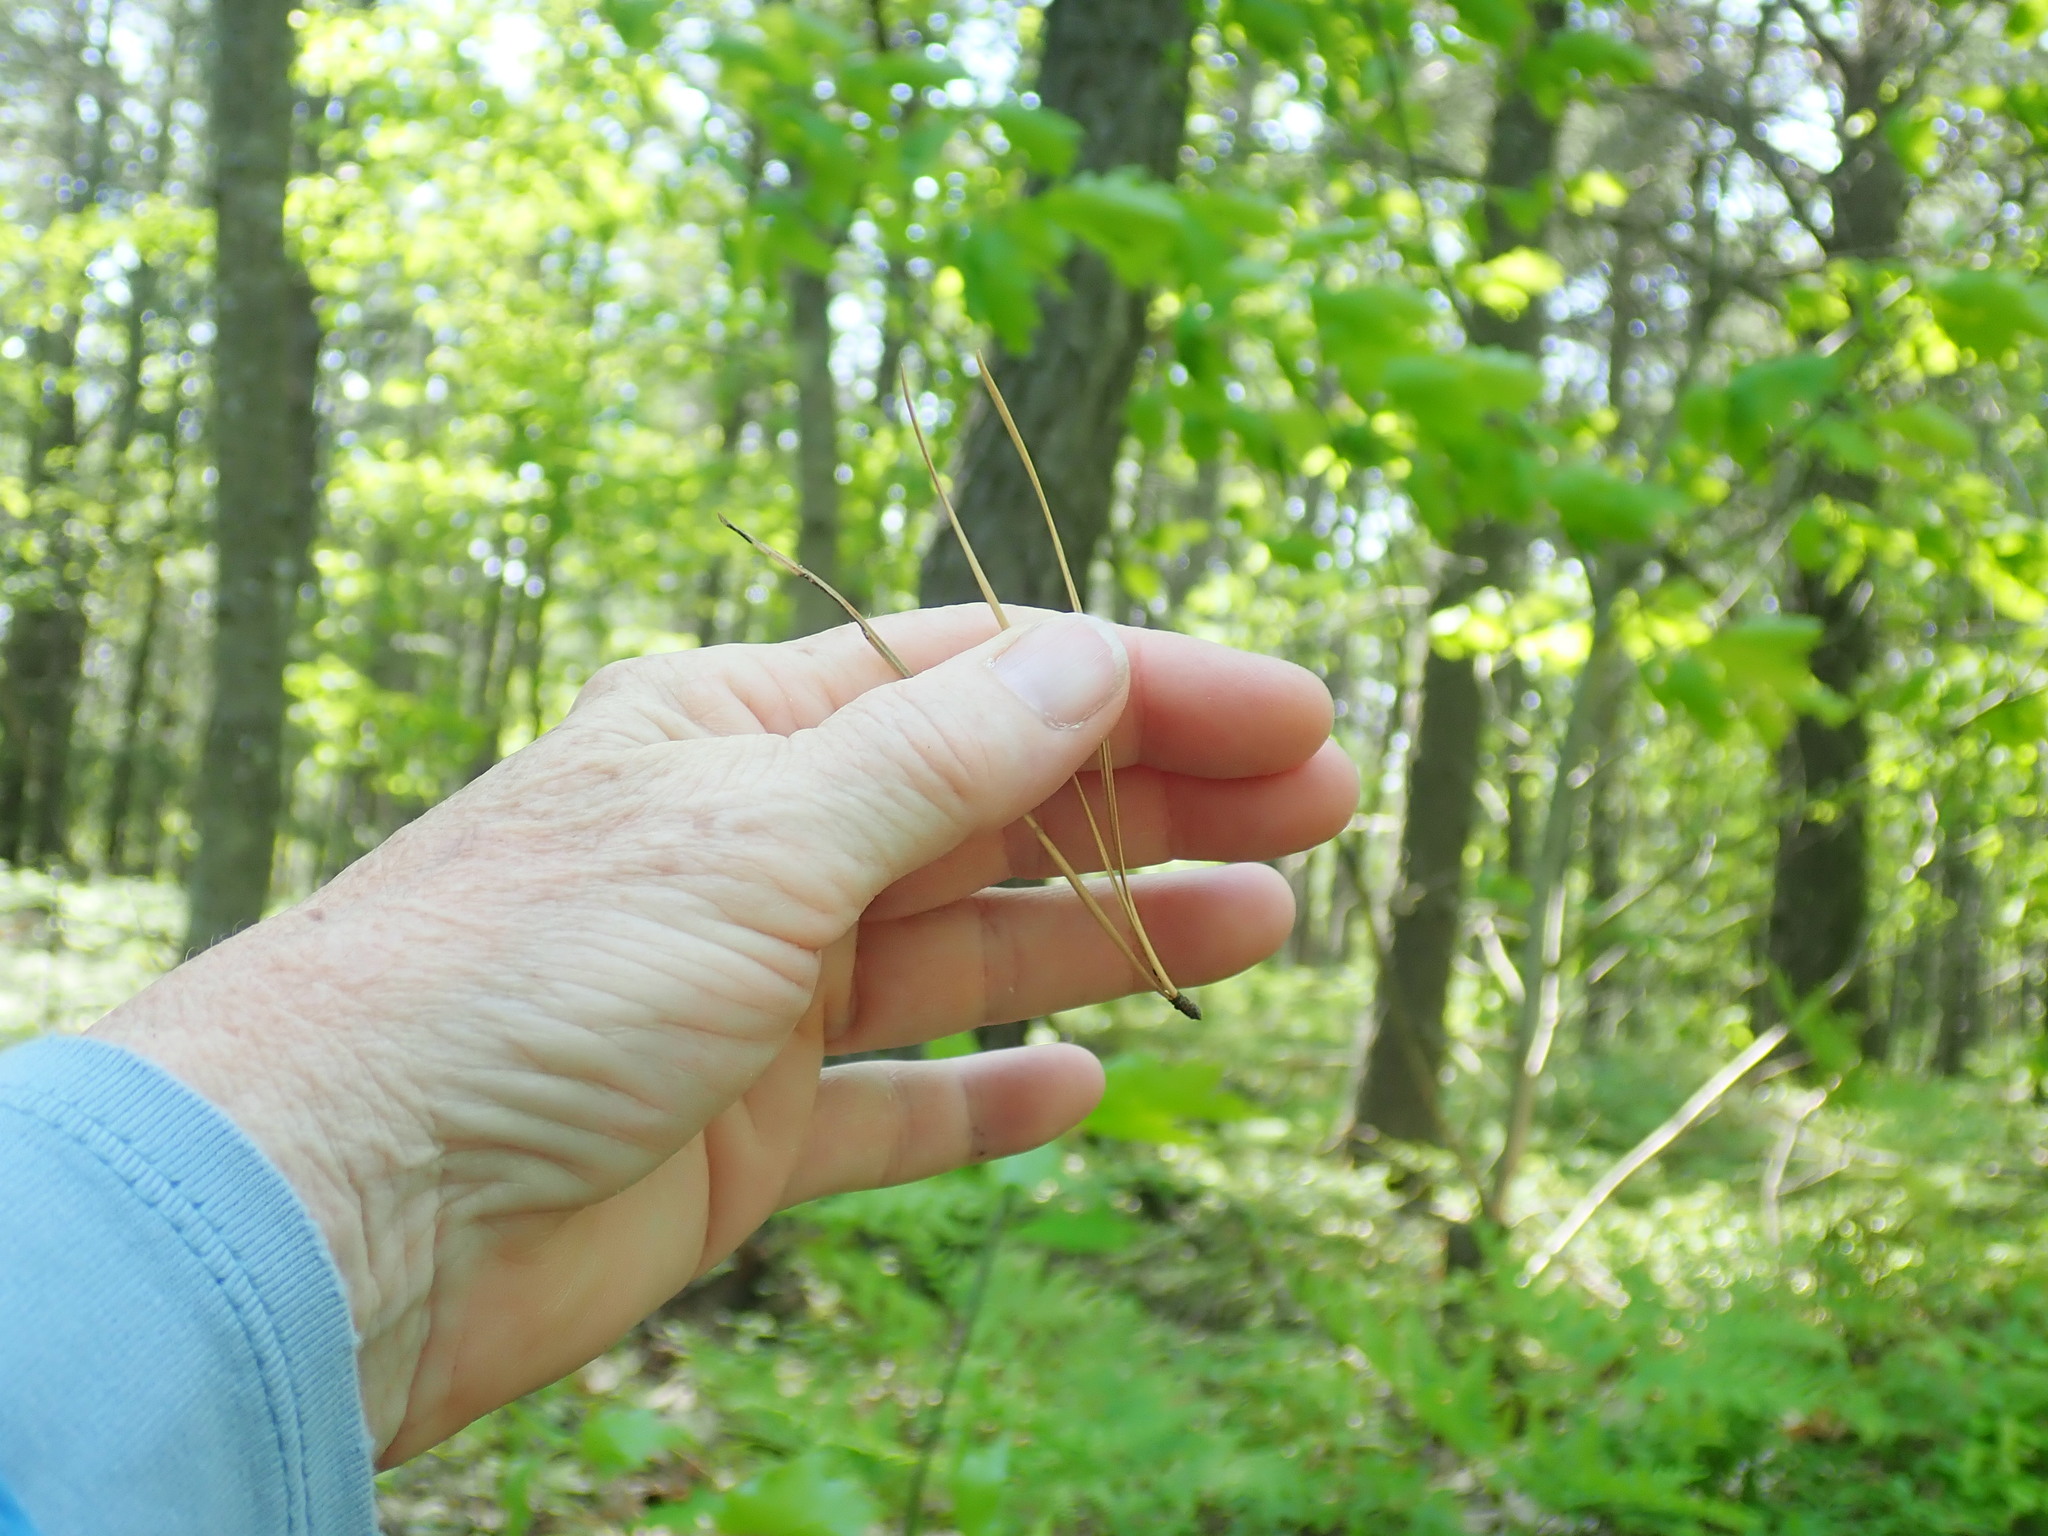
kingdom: Plantae
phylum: Tracheophyta
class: Pinopsida
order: Pinales
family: Pinaceae
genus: Pinus
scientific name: Pinus rigida
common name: Pitch pine
